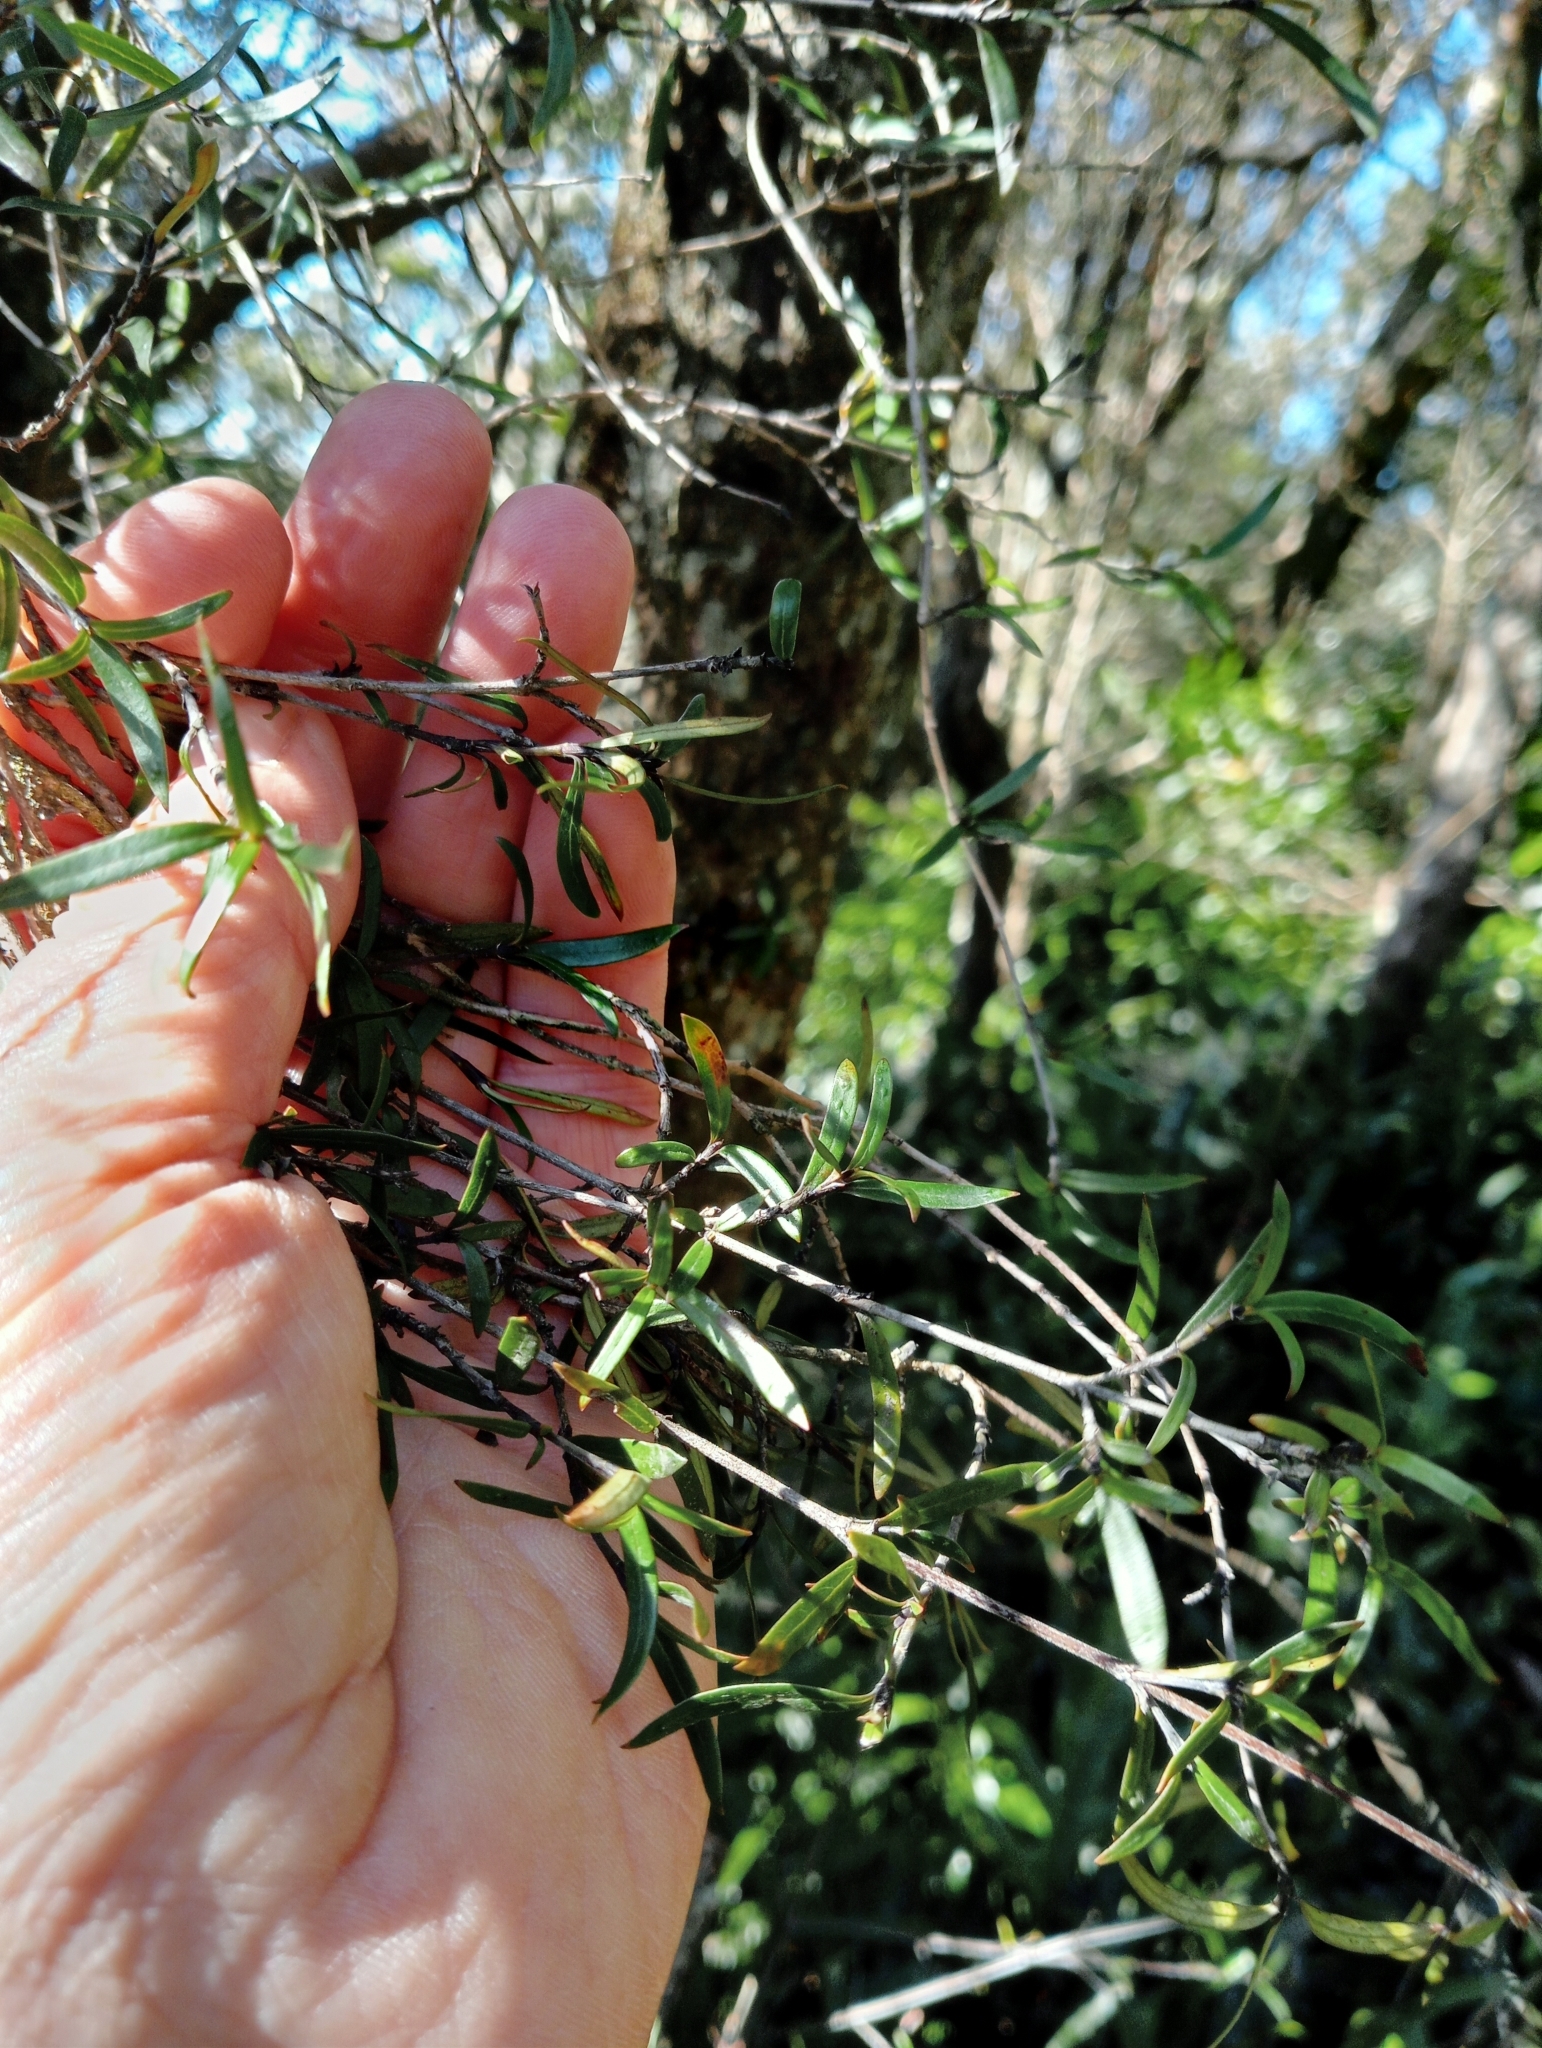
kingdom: Plantae
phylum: Tracheophyta
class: Magnoliopsida
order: Gentianales
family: Rubiaceae
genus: Coprosma
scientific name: Coprosma linariifolia
